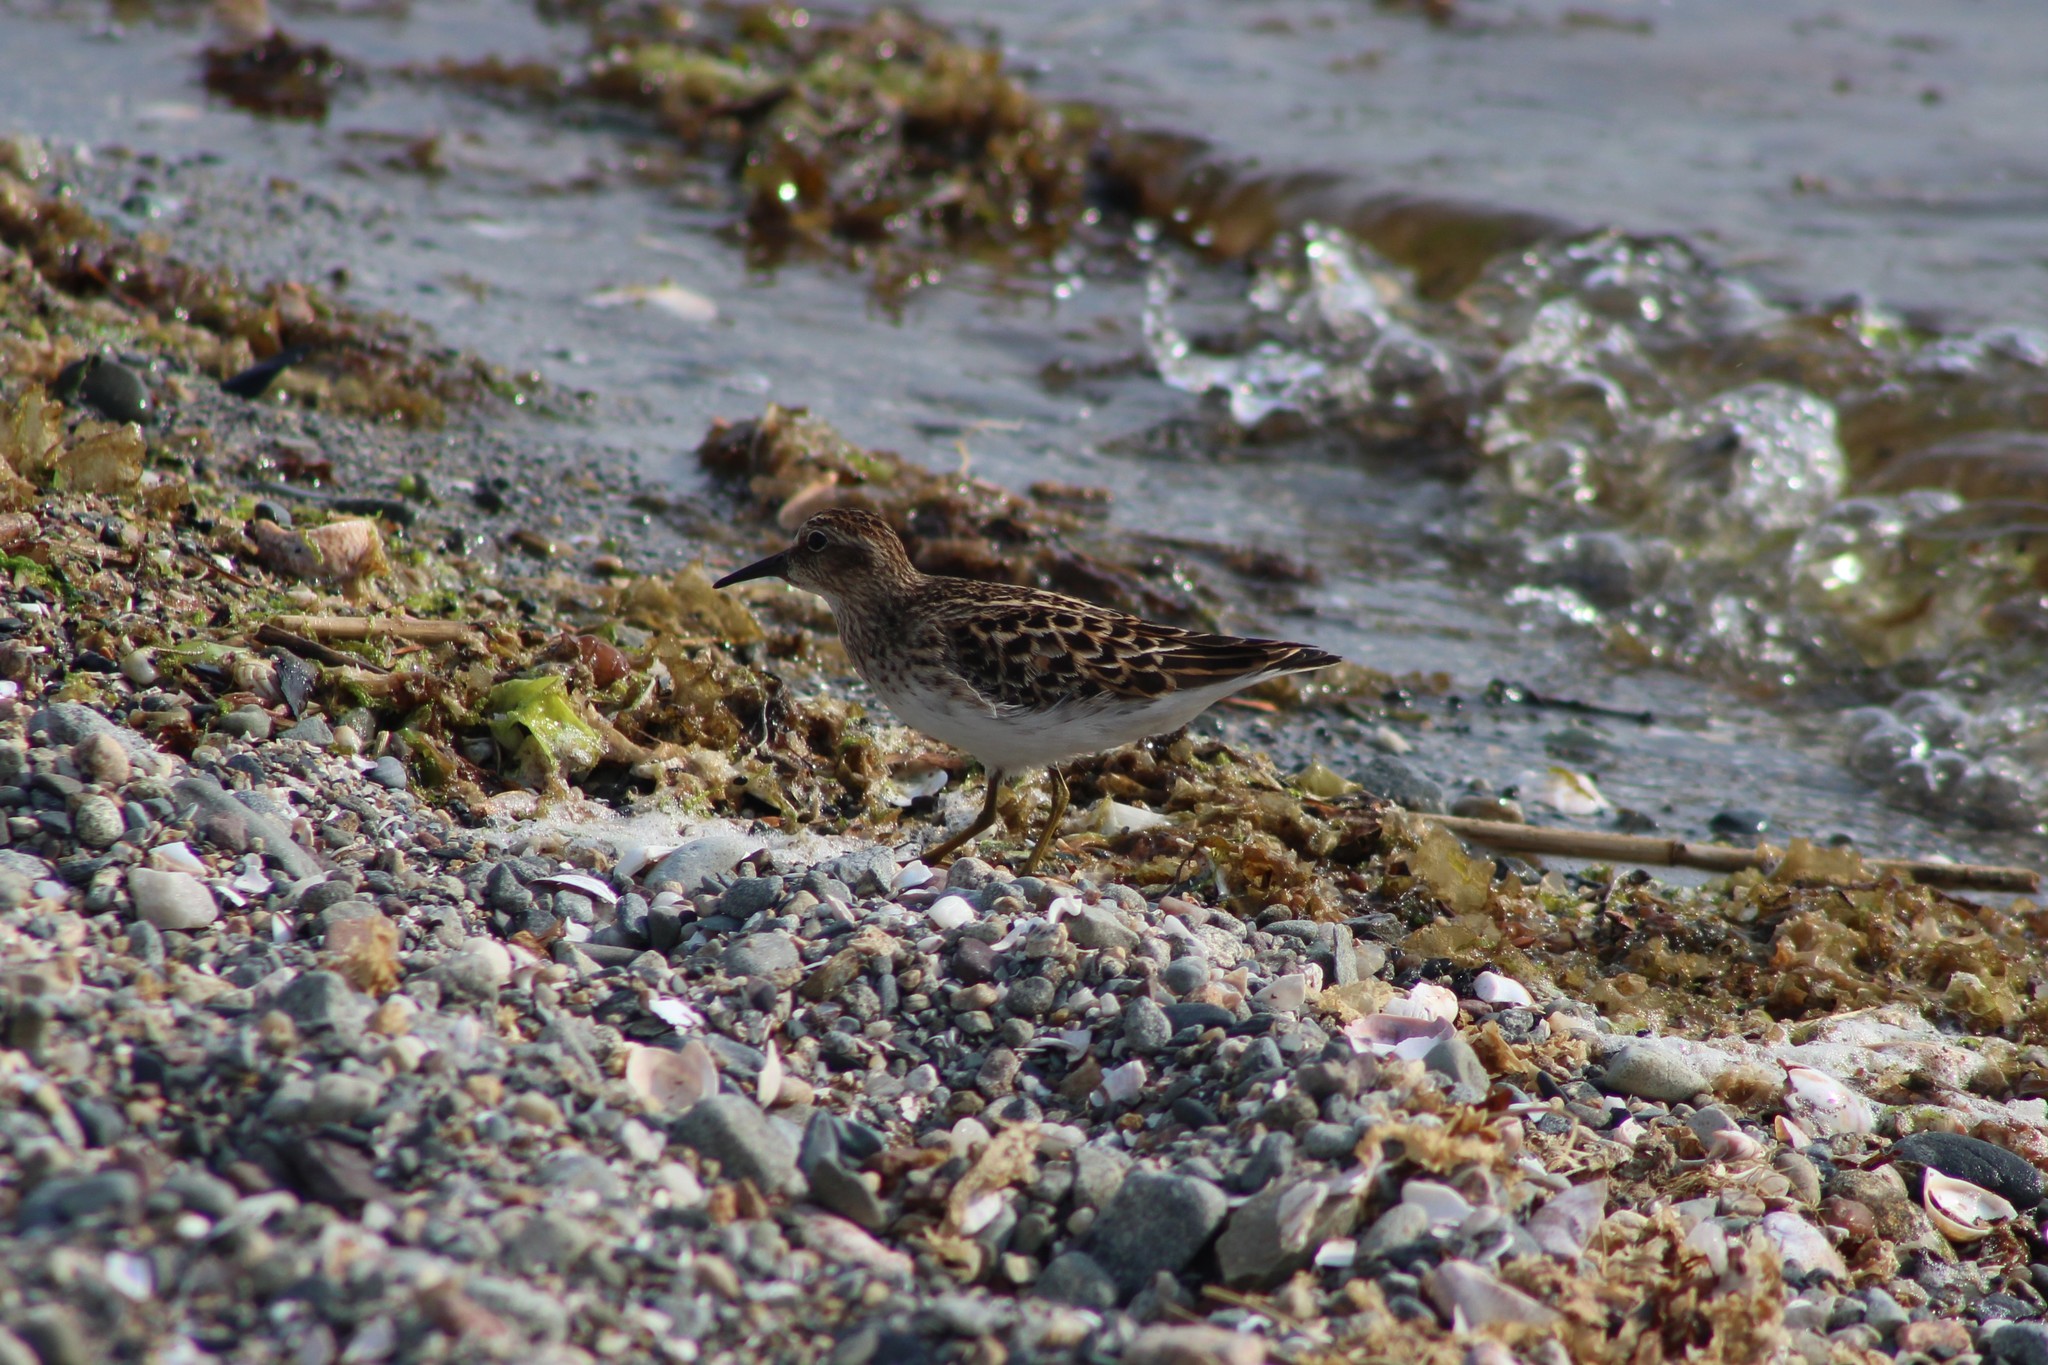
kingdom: Animalia
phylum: Chordata
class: Aves
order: Charadriiformes
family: Scolopacidae
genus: Calidris
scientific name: Calidris minutilla
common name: Least sandpiper
